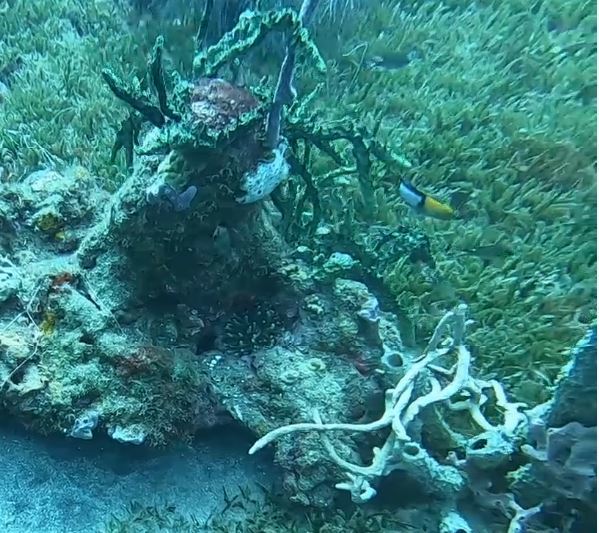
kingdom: Animalia
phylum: Chordata
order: Perciformes
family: Labridae
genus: Halichoeres
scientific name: Halichoeres garnoti
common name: Yellowhead wrasse
